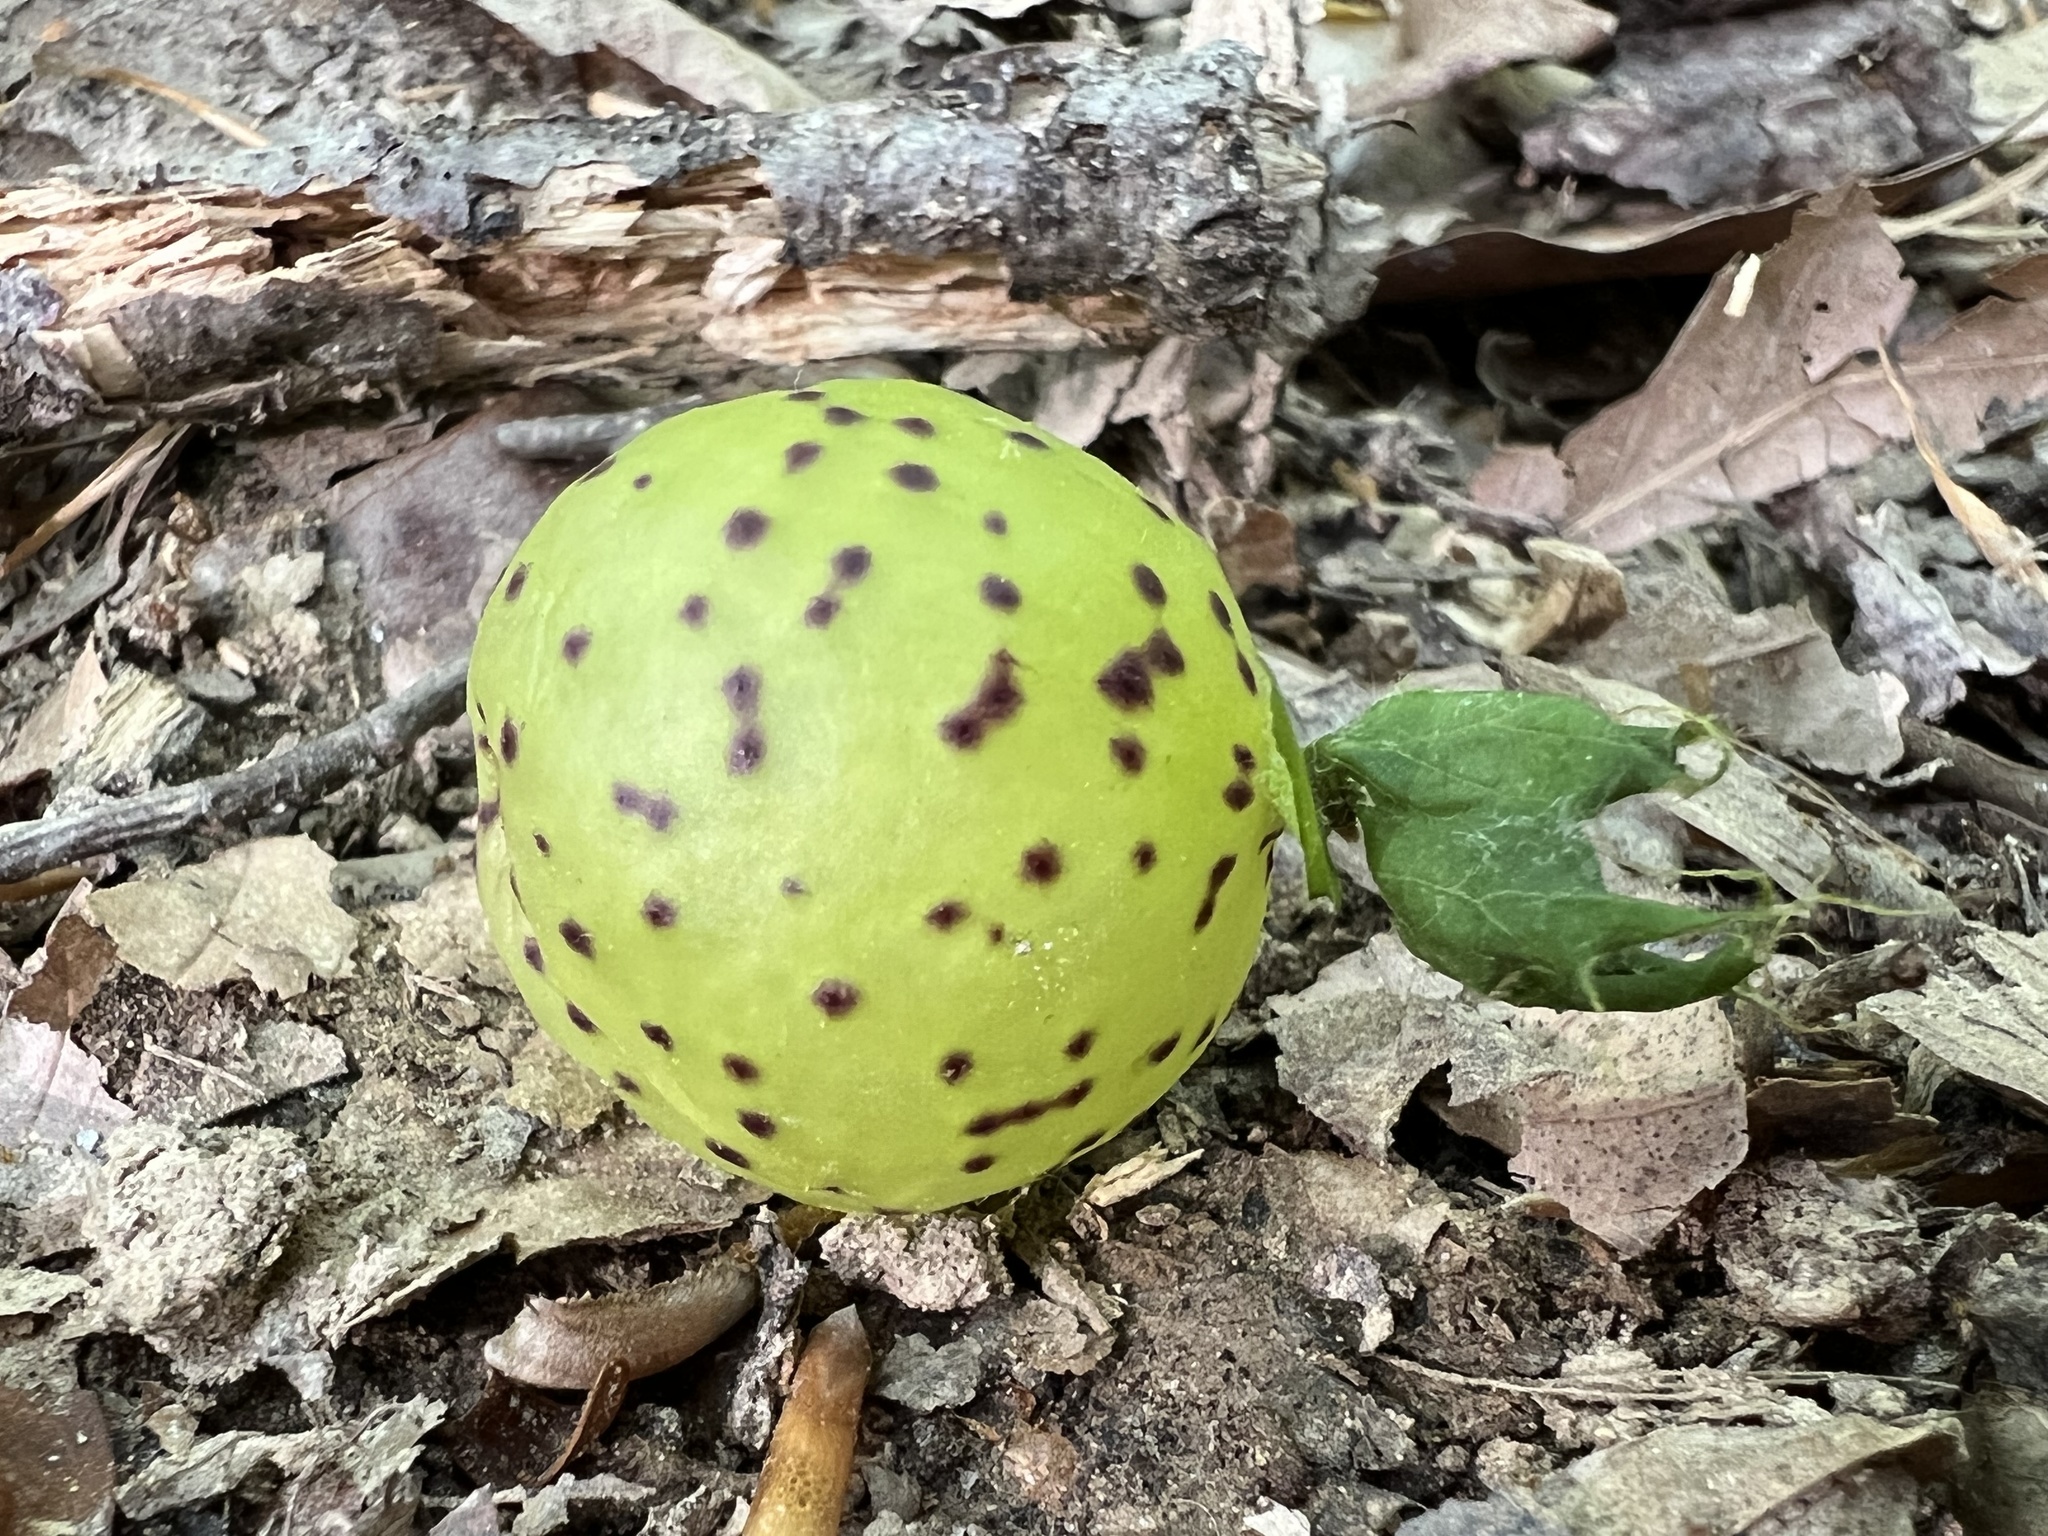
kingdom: Animalia
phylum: Arthropoda
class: Insecta
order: Hymenoptera
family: Cynipidae
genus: Amphibolips
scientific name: Amphibolips
